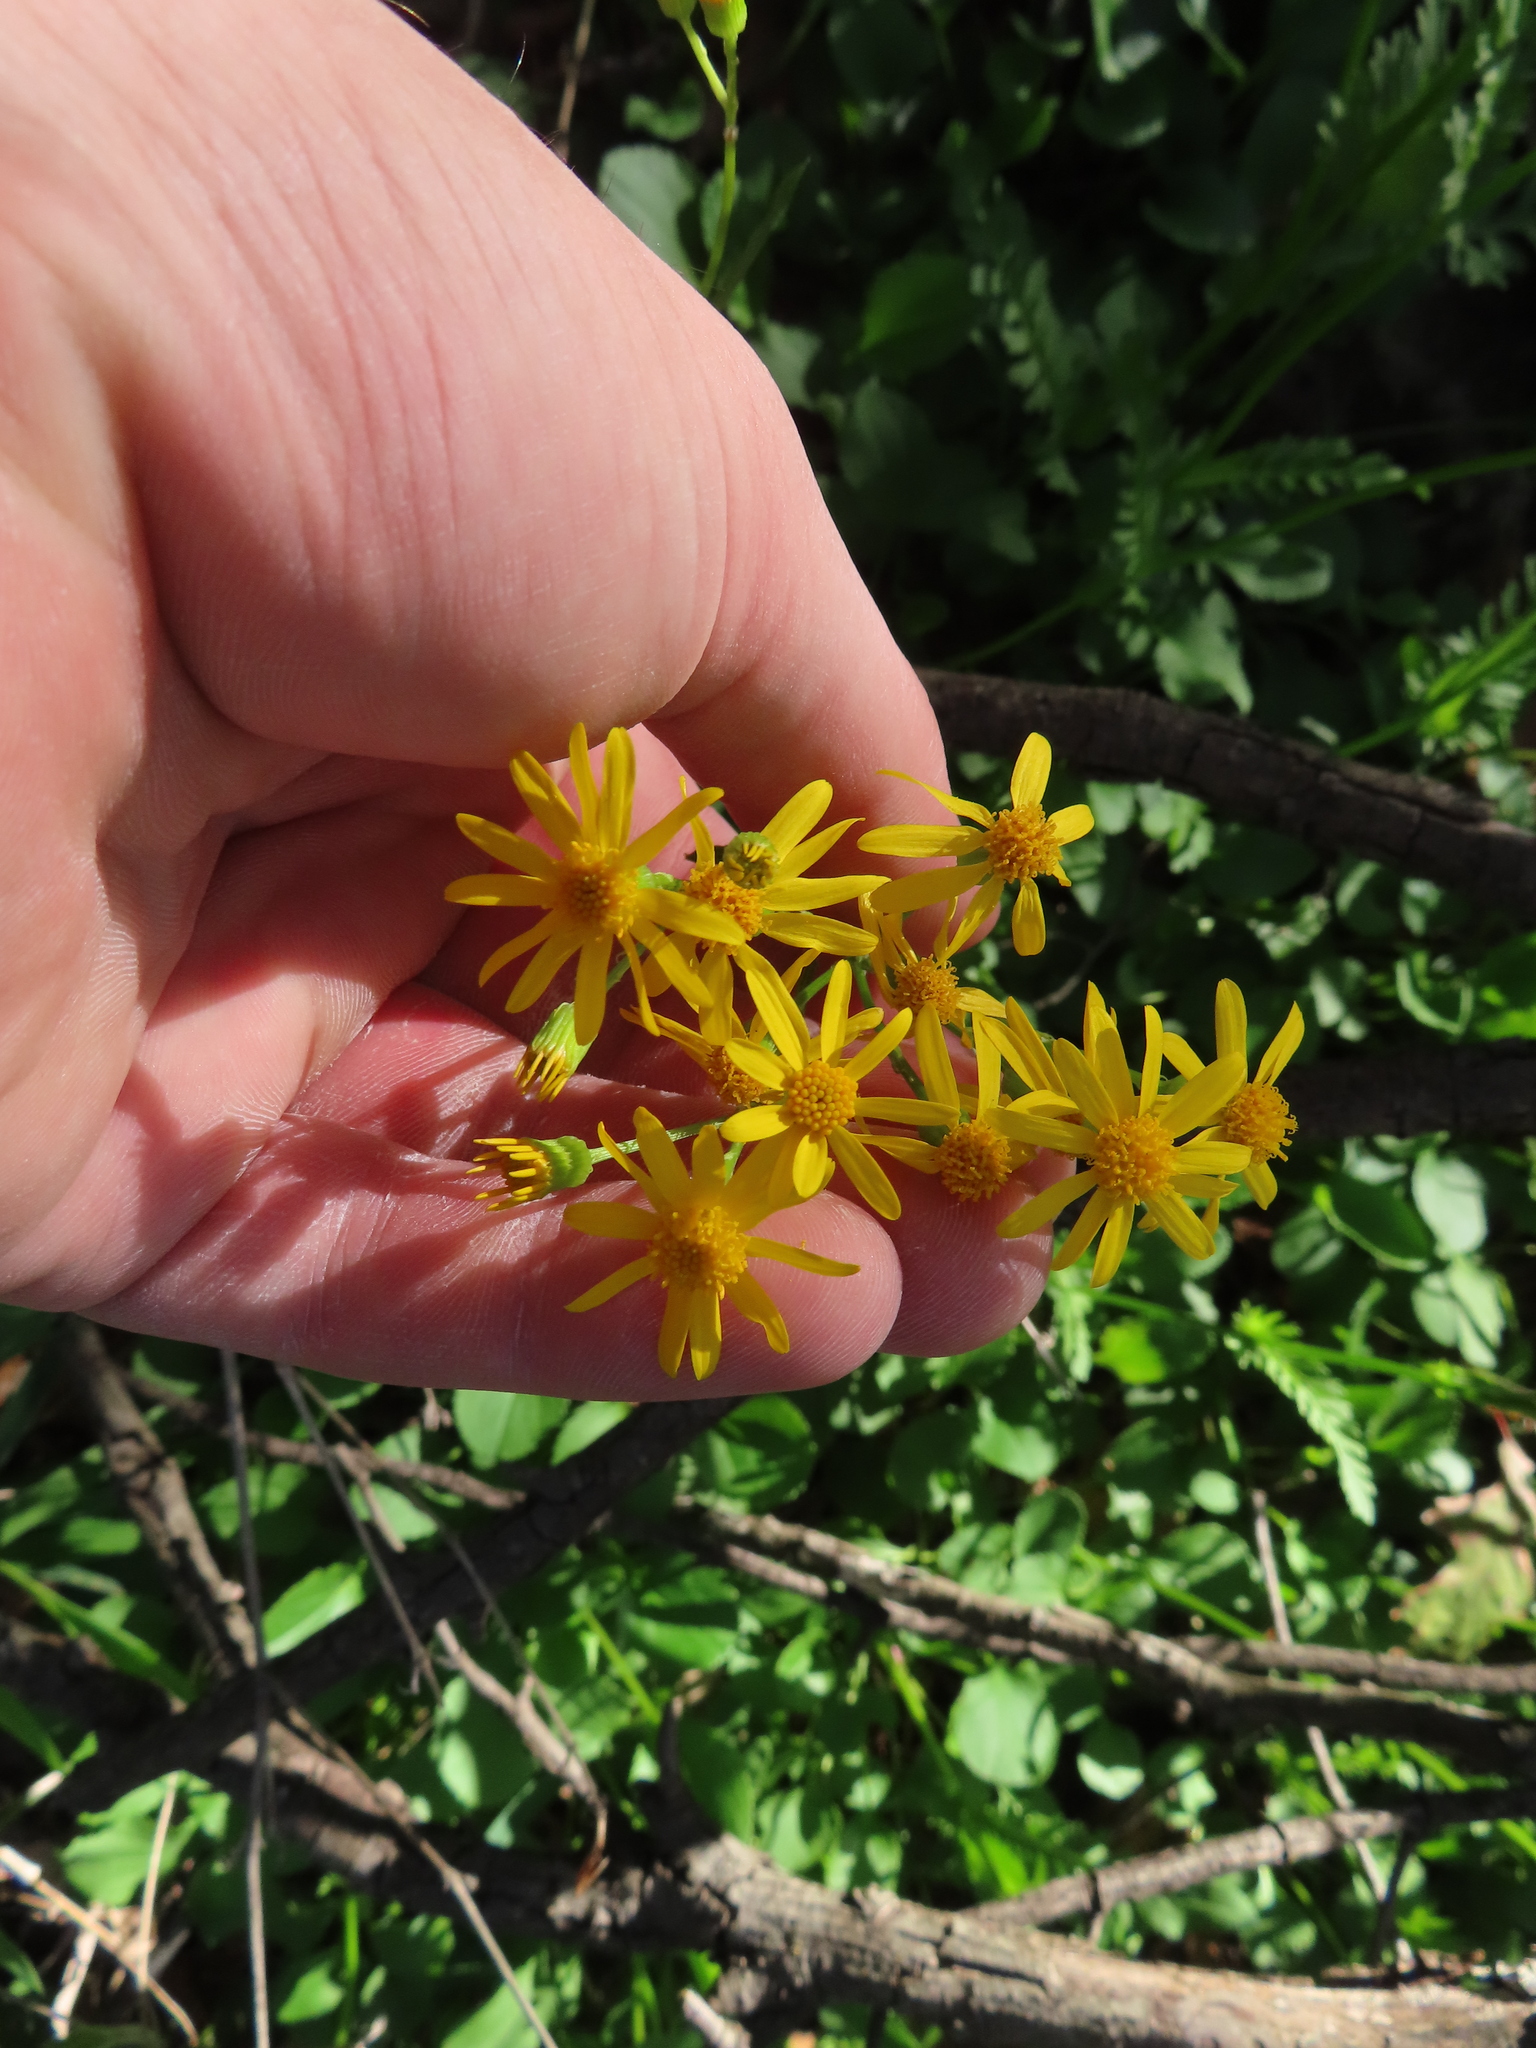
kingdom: Plantae
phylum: Tracheophyta
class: Magnoliopsida
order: Asterales
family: Asteraceae
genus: Packera
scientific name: Packera obovata
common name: Round-leaf ragwort
